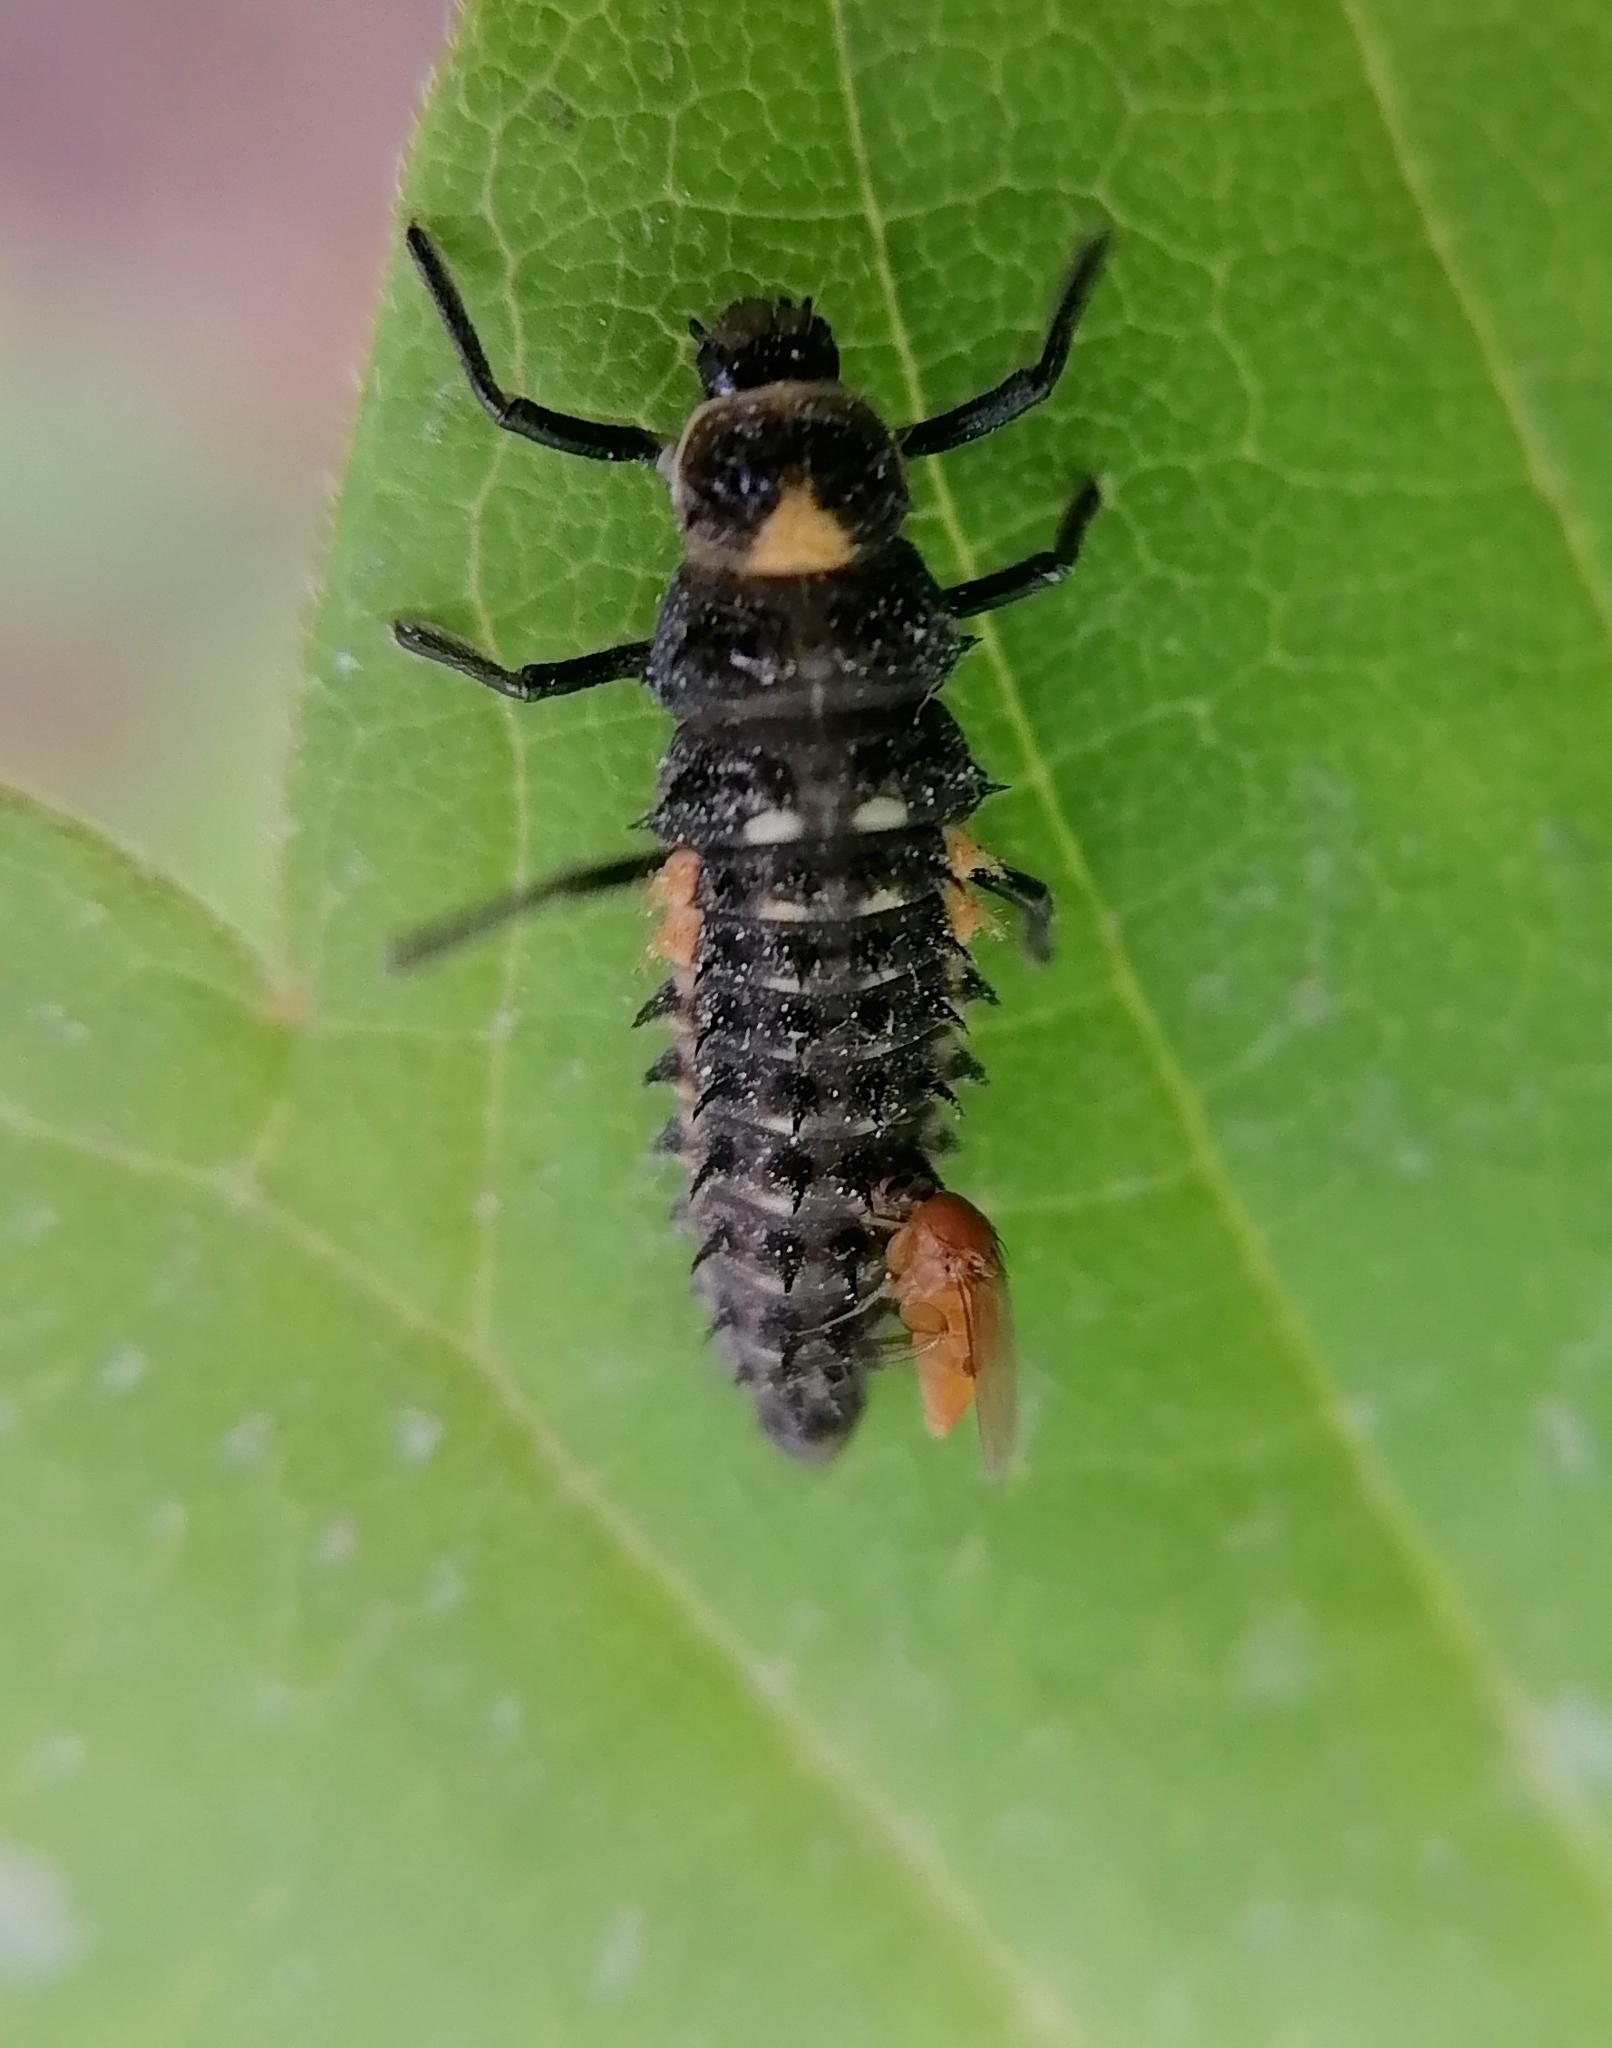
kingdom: Animalia
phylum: Arthropoda
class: Insecta
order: Coleoptera
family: Coccinellidae
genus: Coccinella
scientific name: Coccinella septempunctata
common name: Sevenspotted lady beetle
